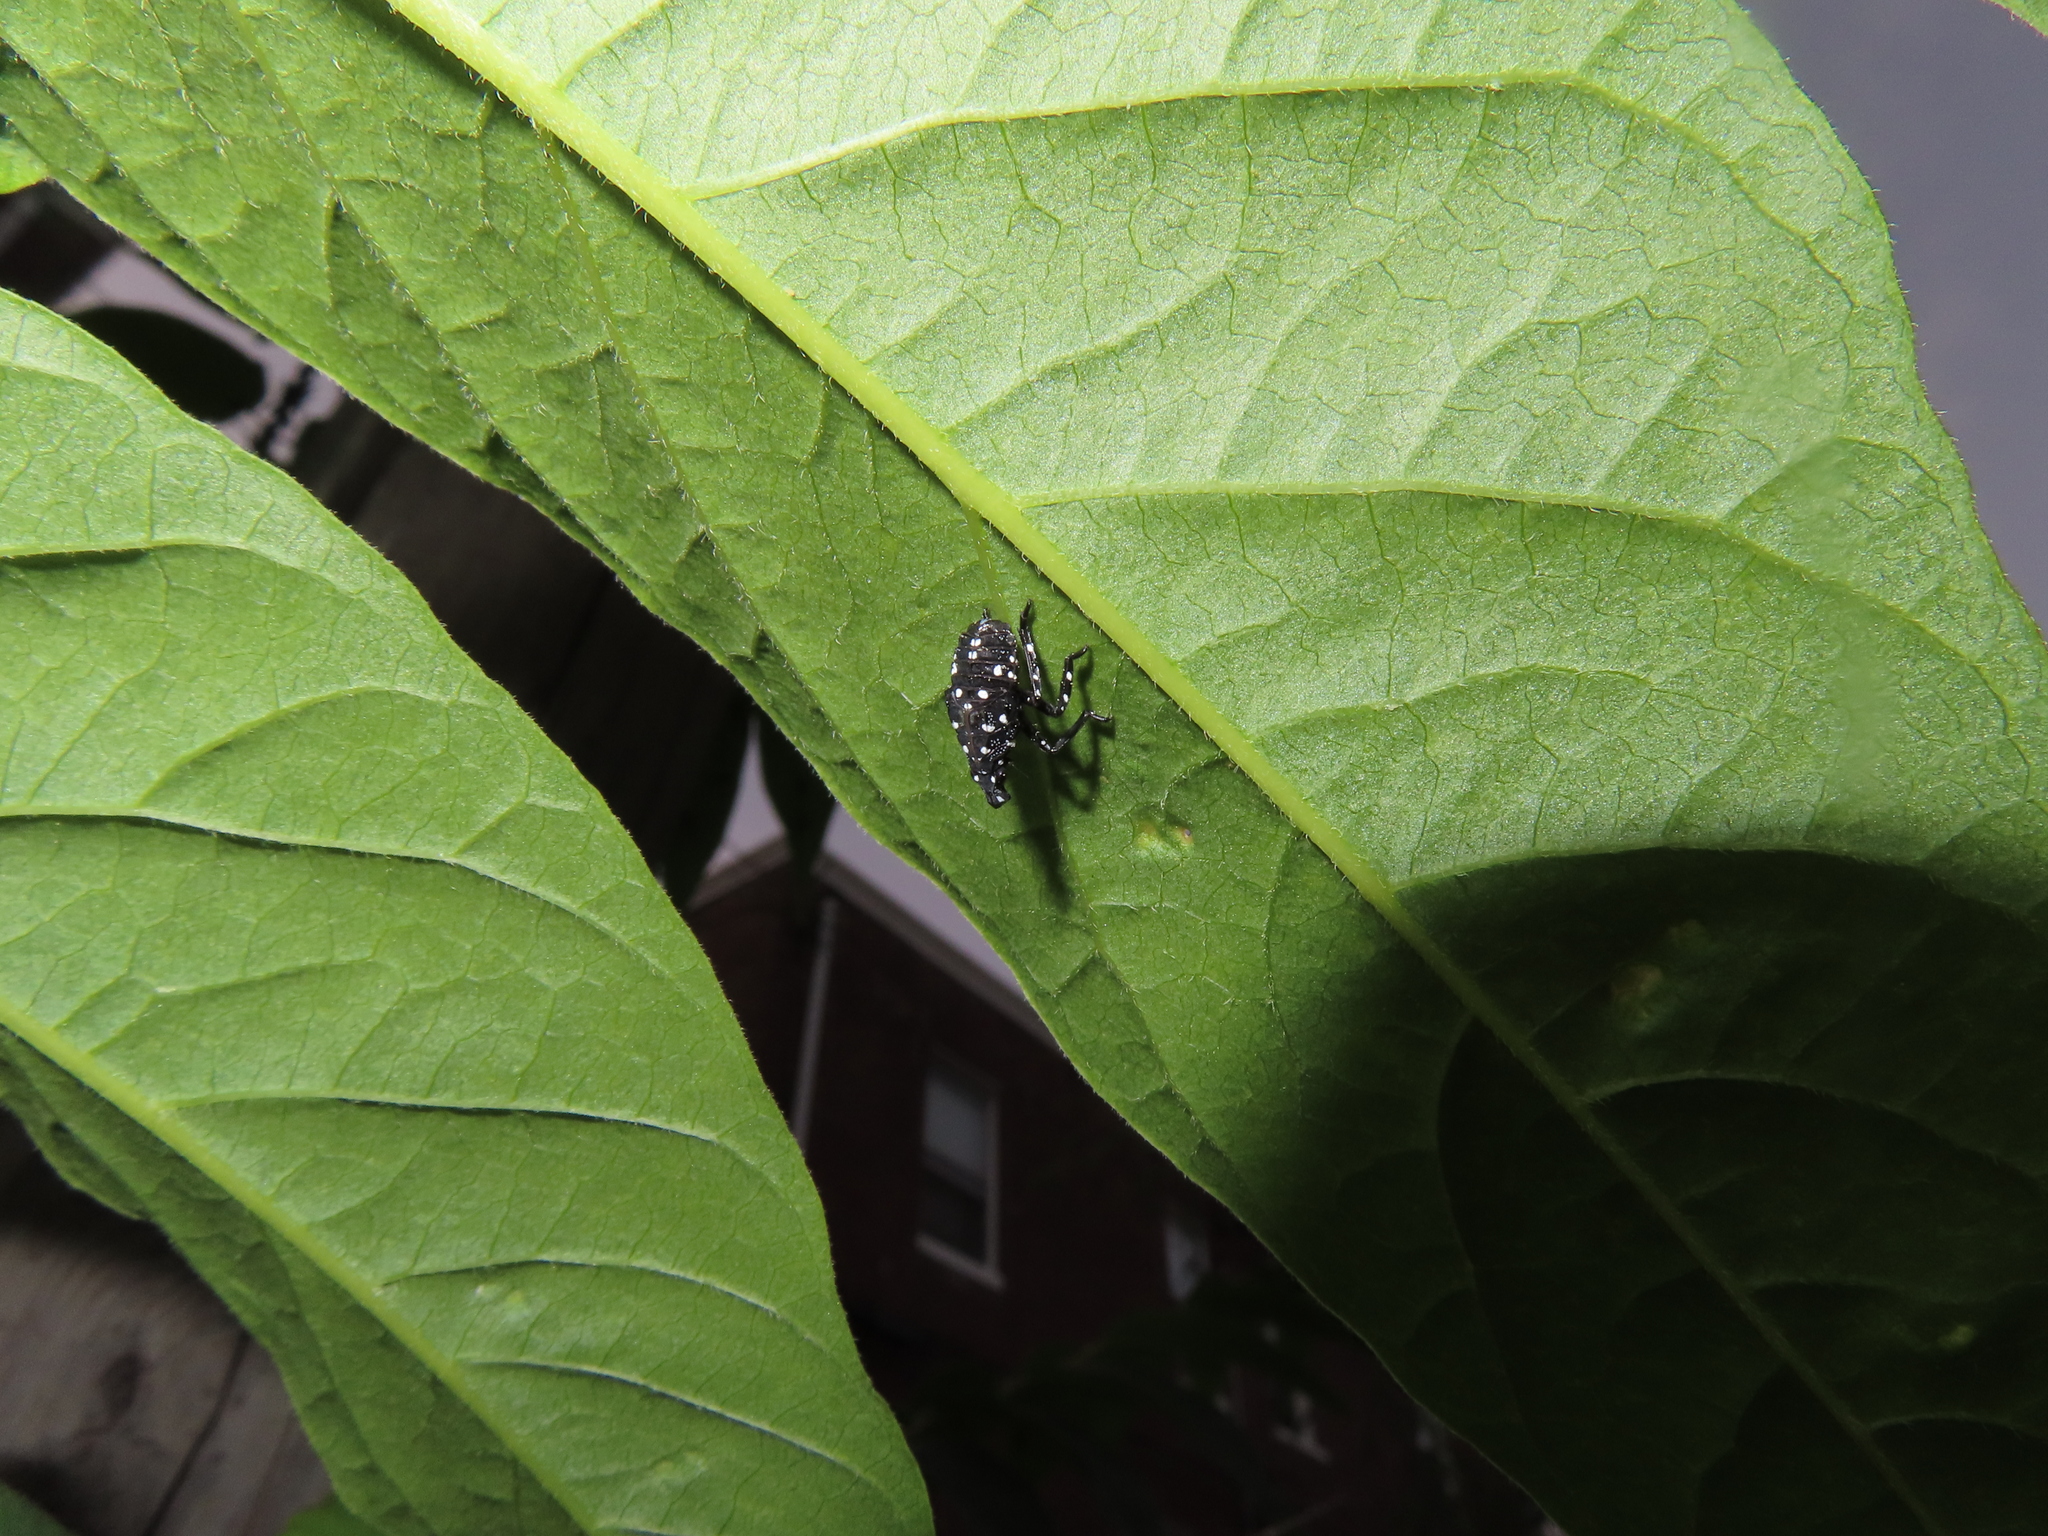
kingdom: Animalia
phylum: Arthropoda
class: Insecta
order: Hemiptera
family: Fulgoridae
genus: Lycorma
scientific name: Lycorma delicatula
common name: Spotted lanternfly
